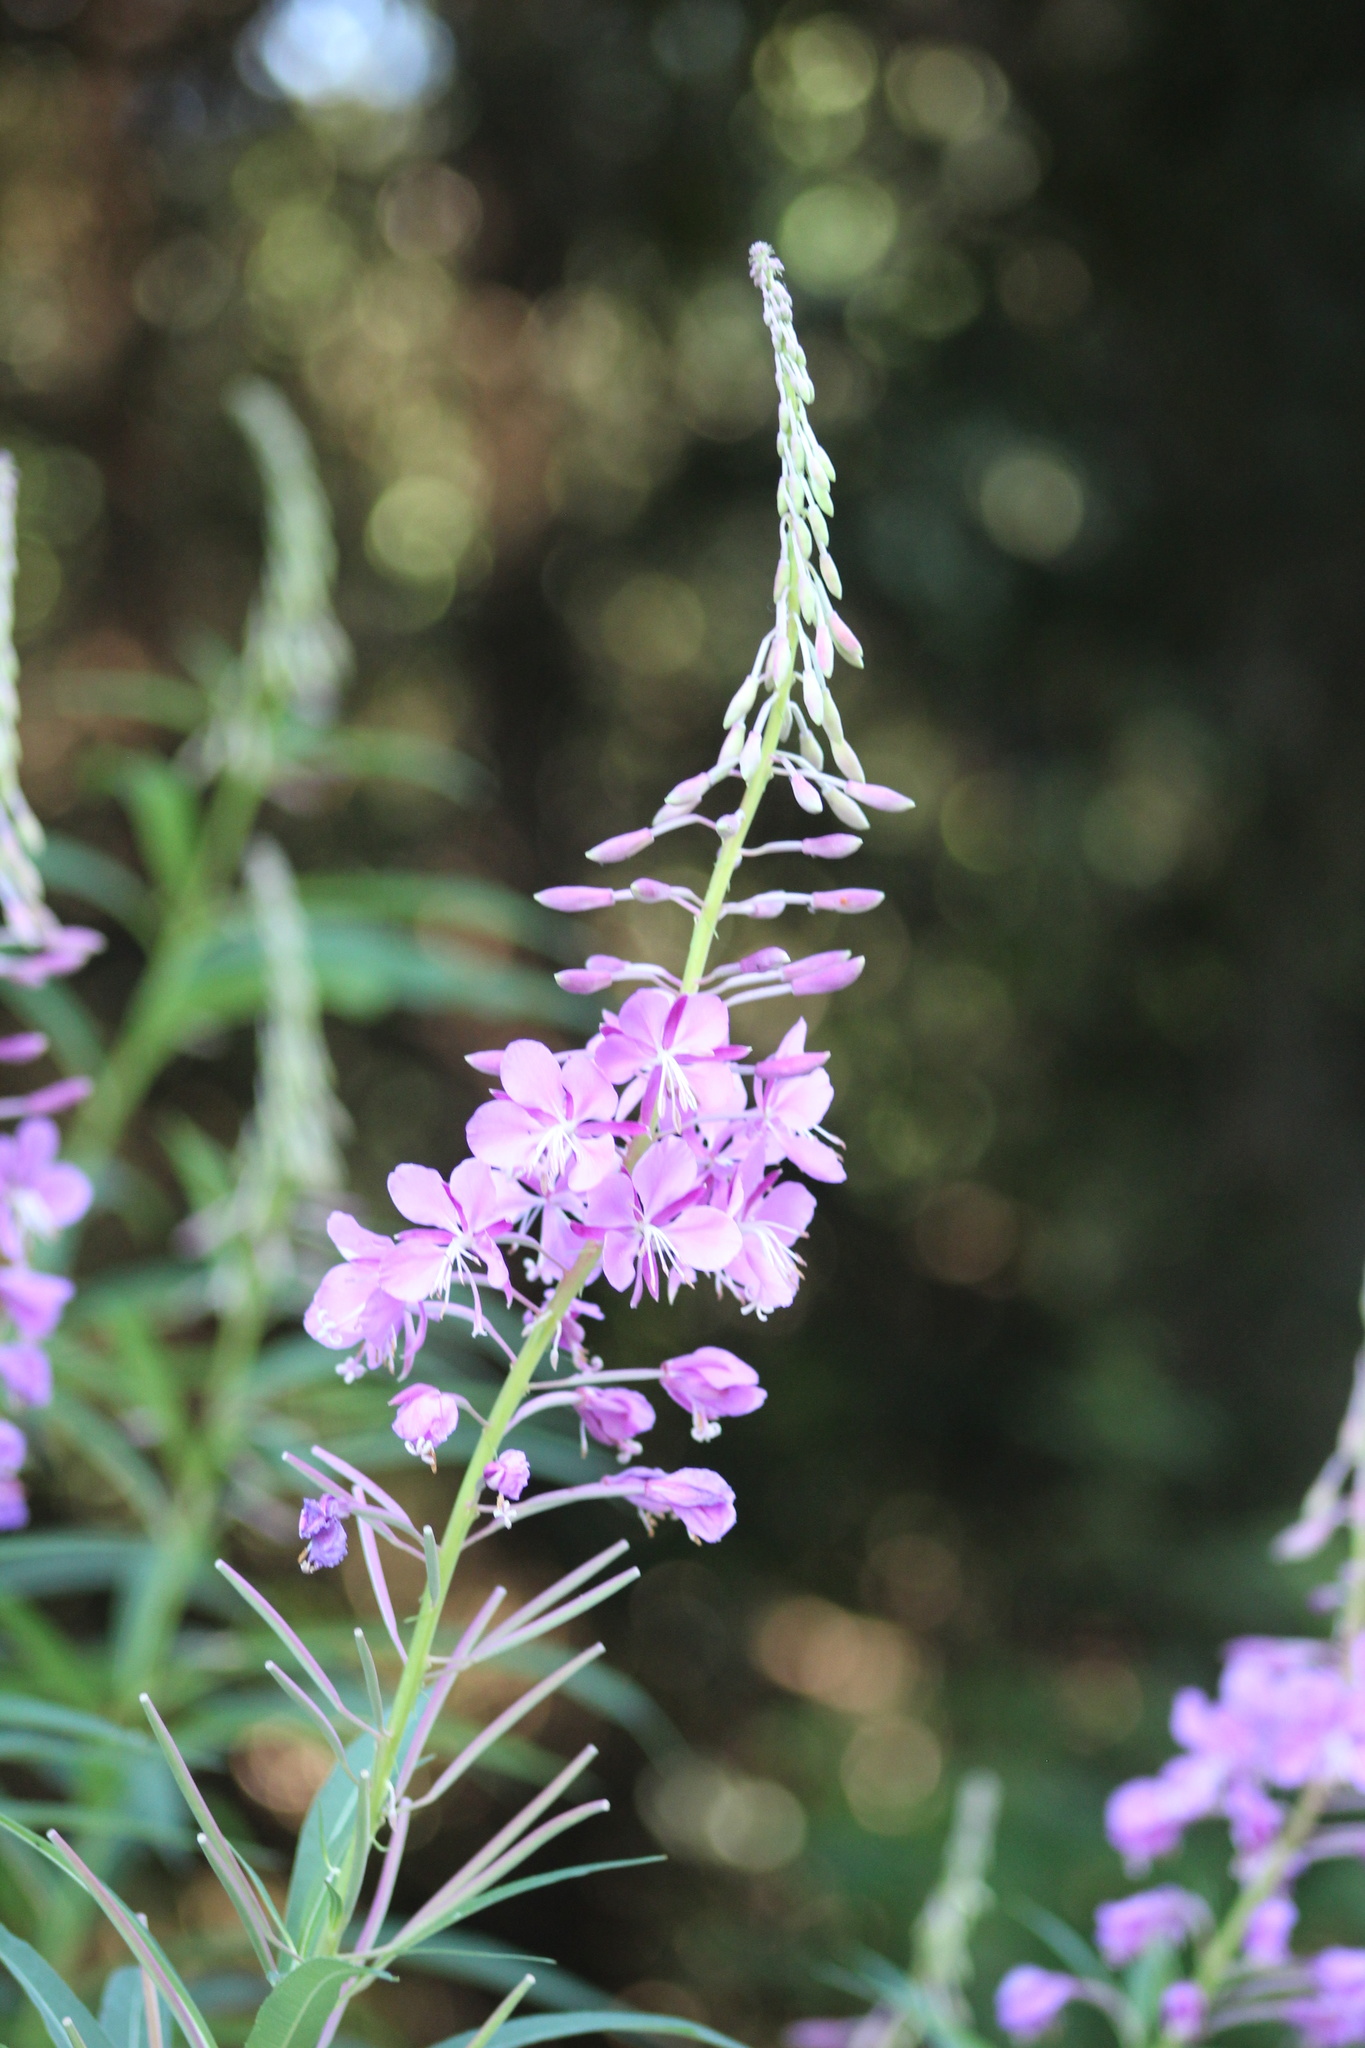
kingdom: Plantae
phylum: Tracheophyta
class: Magnoliopsida
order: Myrtales
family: Onagraceae
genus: Chamaenerion
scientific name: Chamaenerion angustifolium
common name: Fireweed
